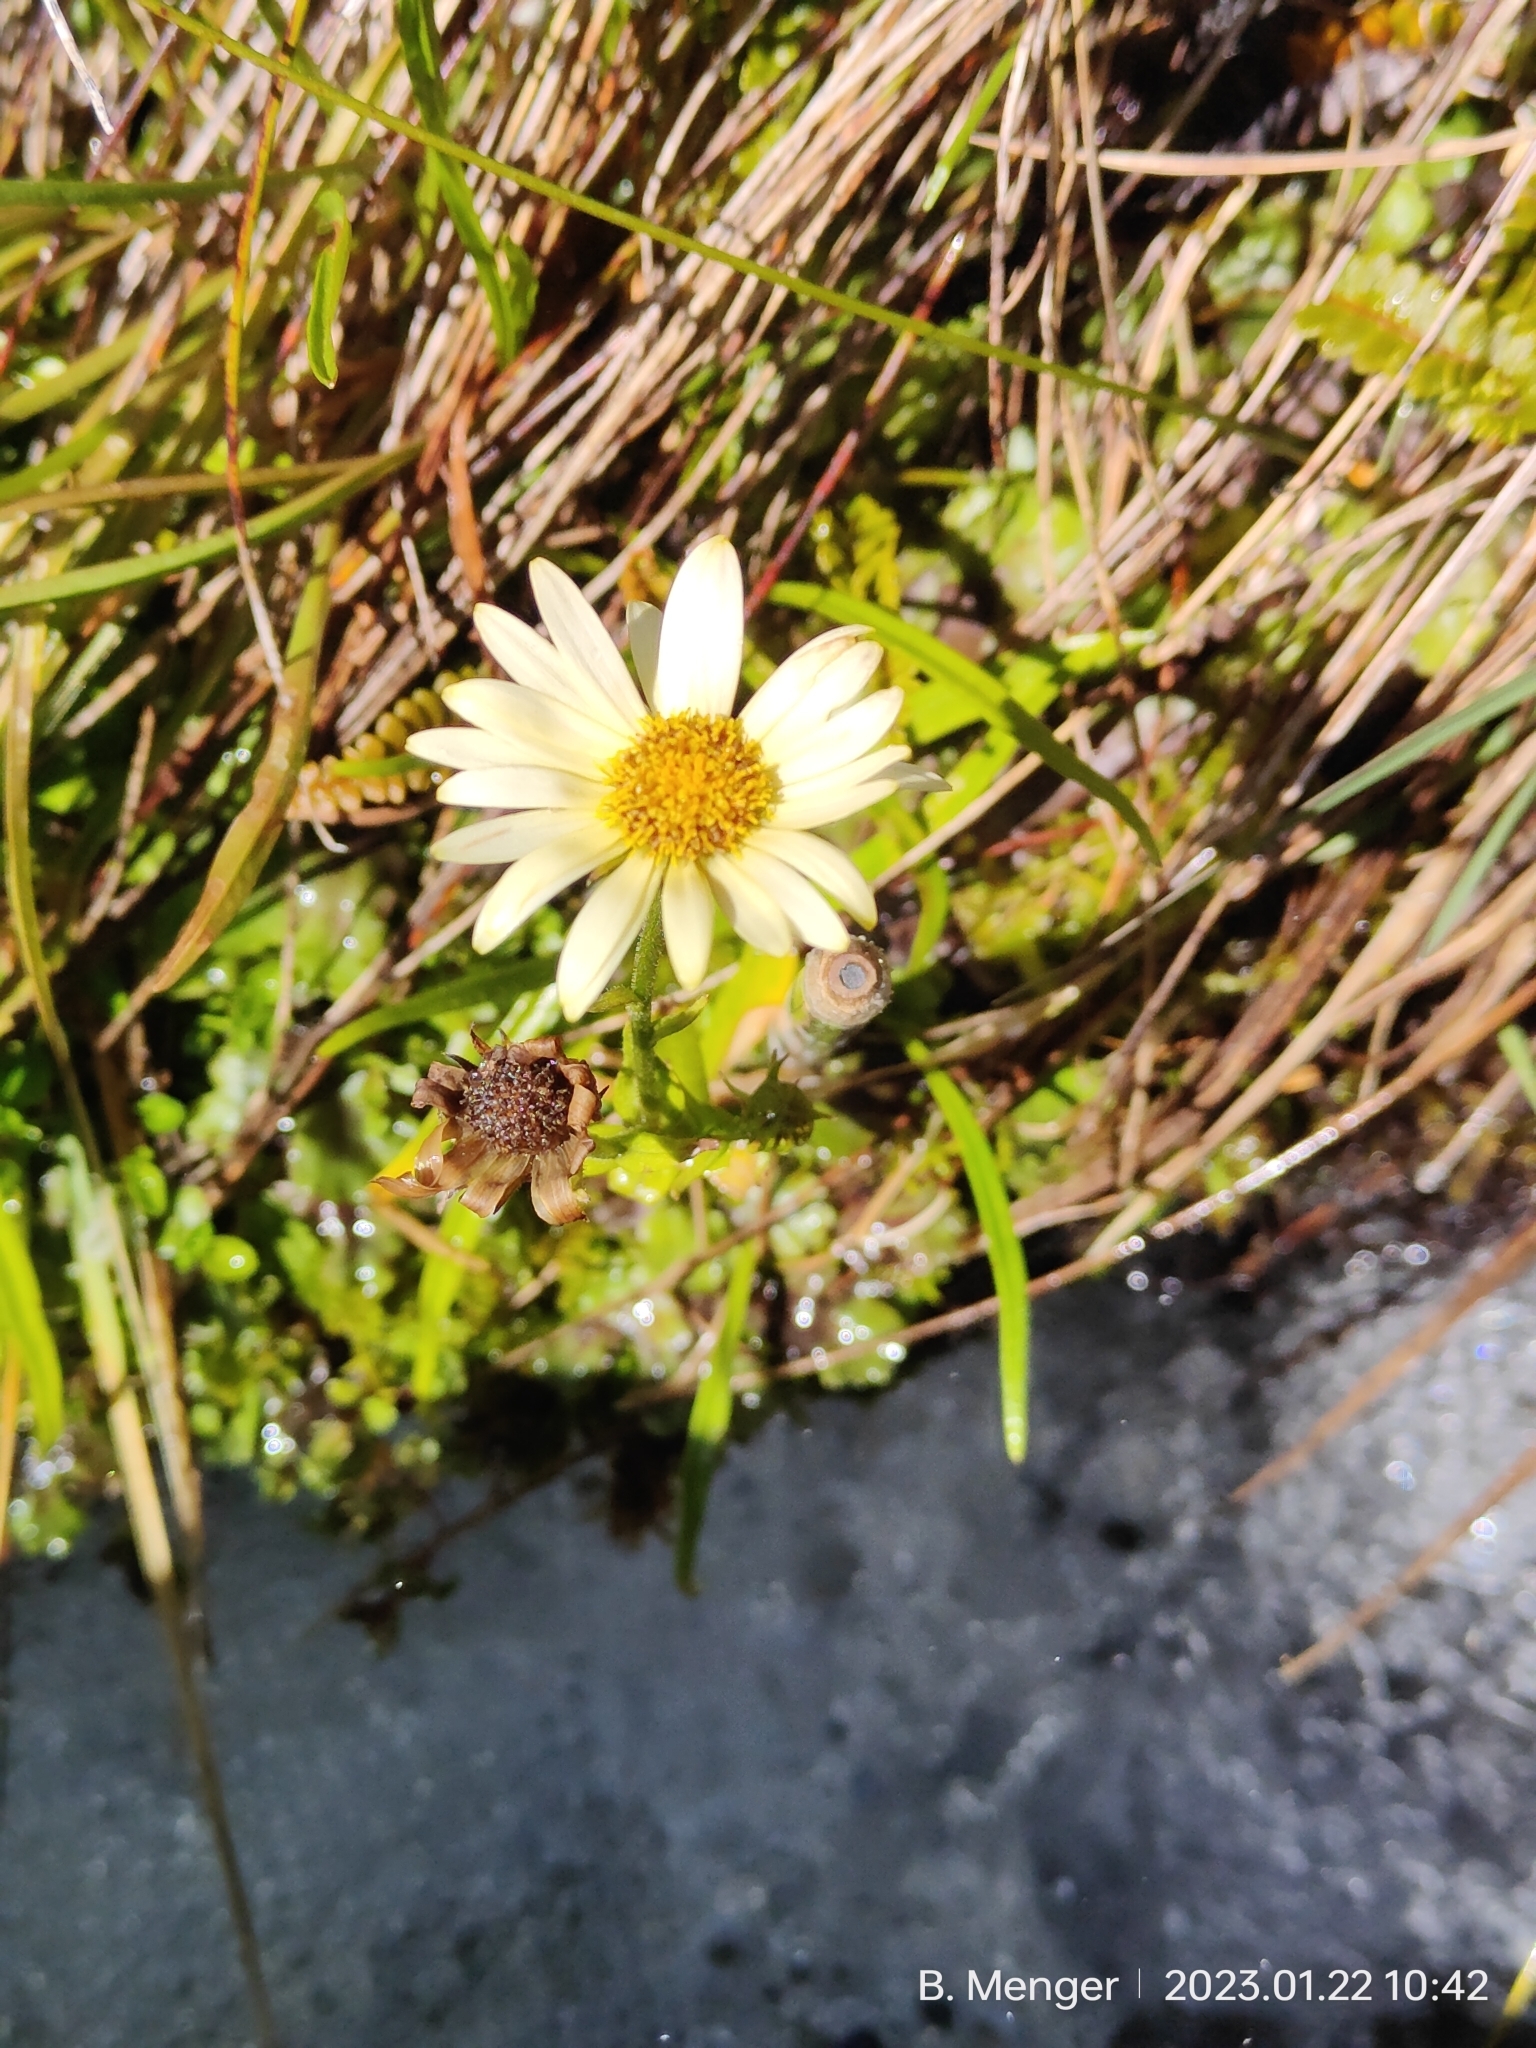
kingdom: Plantae
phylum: Tracheophyta
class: Magnoliopsida
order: Asterales
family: Asteraceae
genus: Dolichoglottis
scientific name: Dolichoglottis
